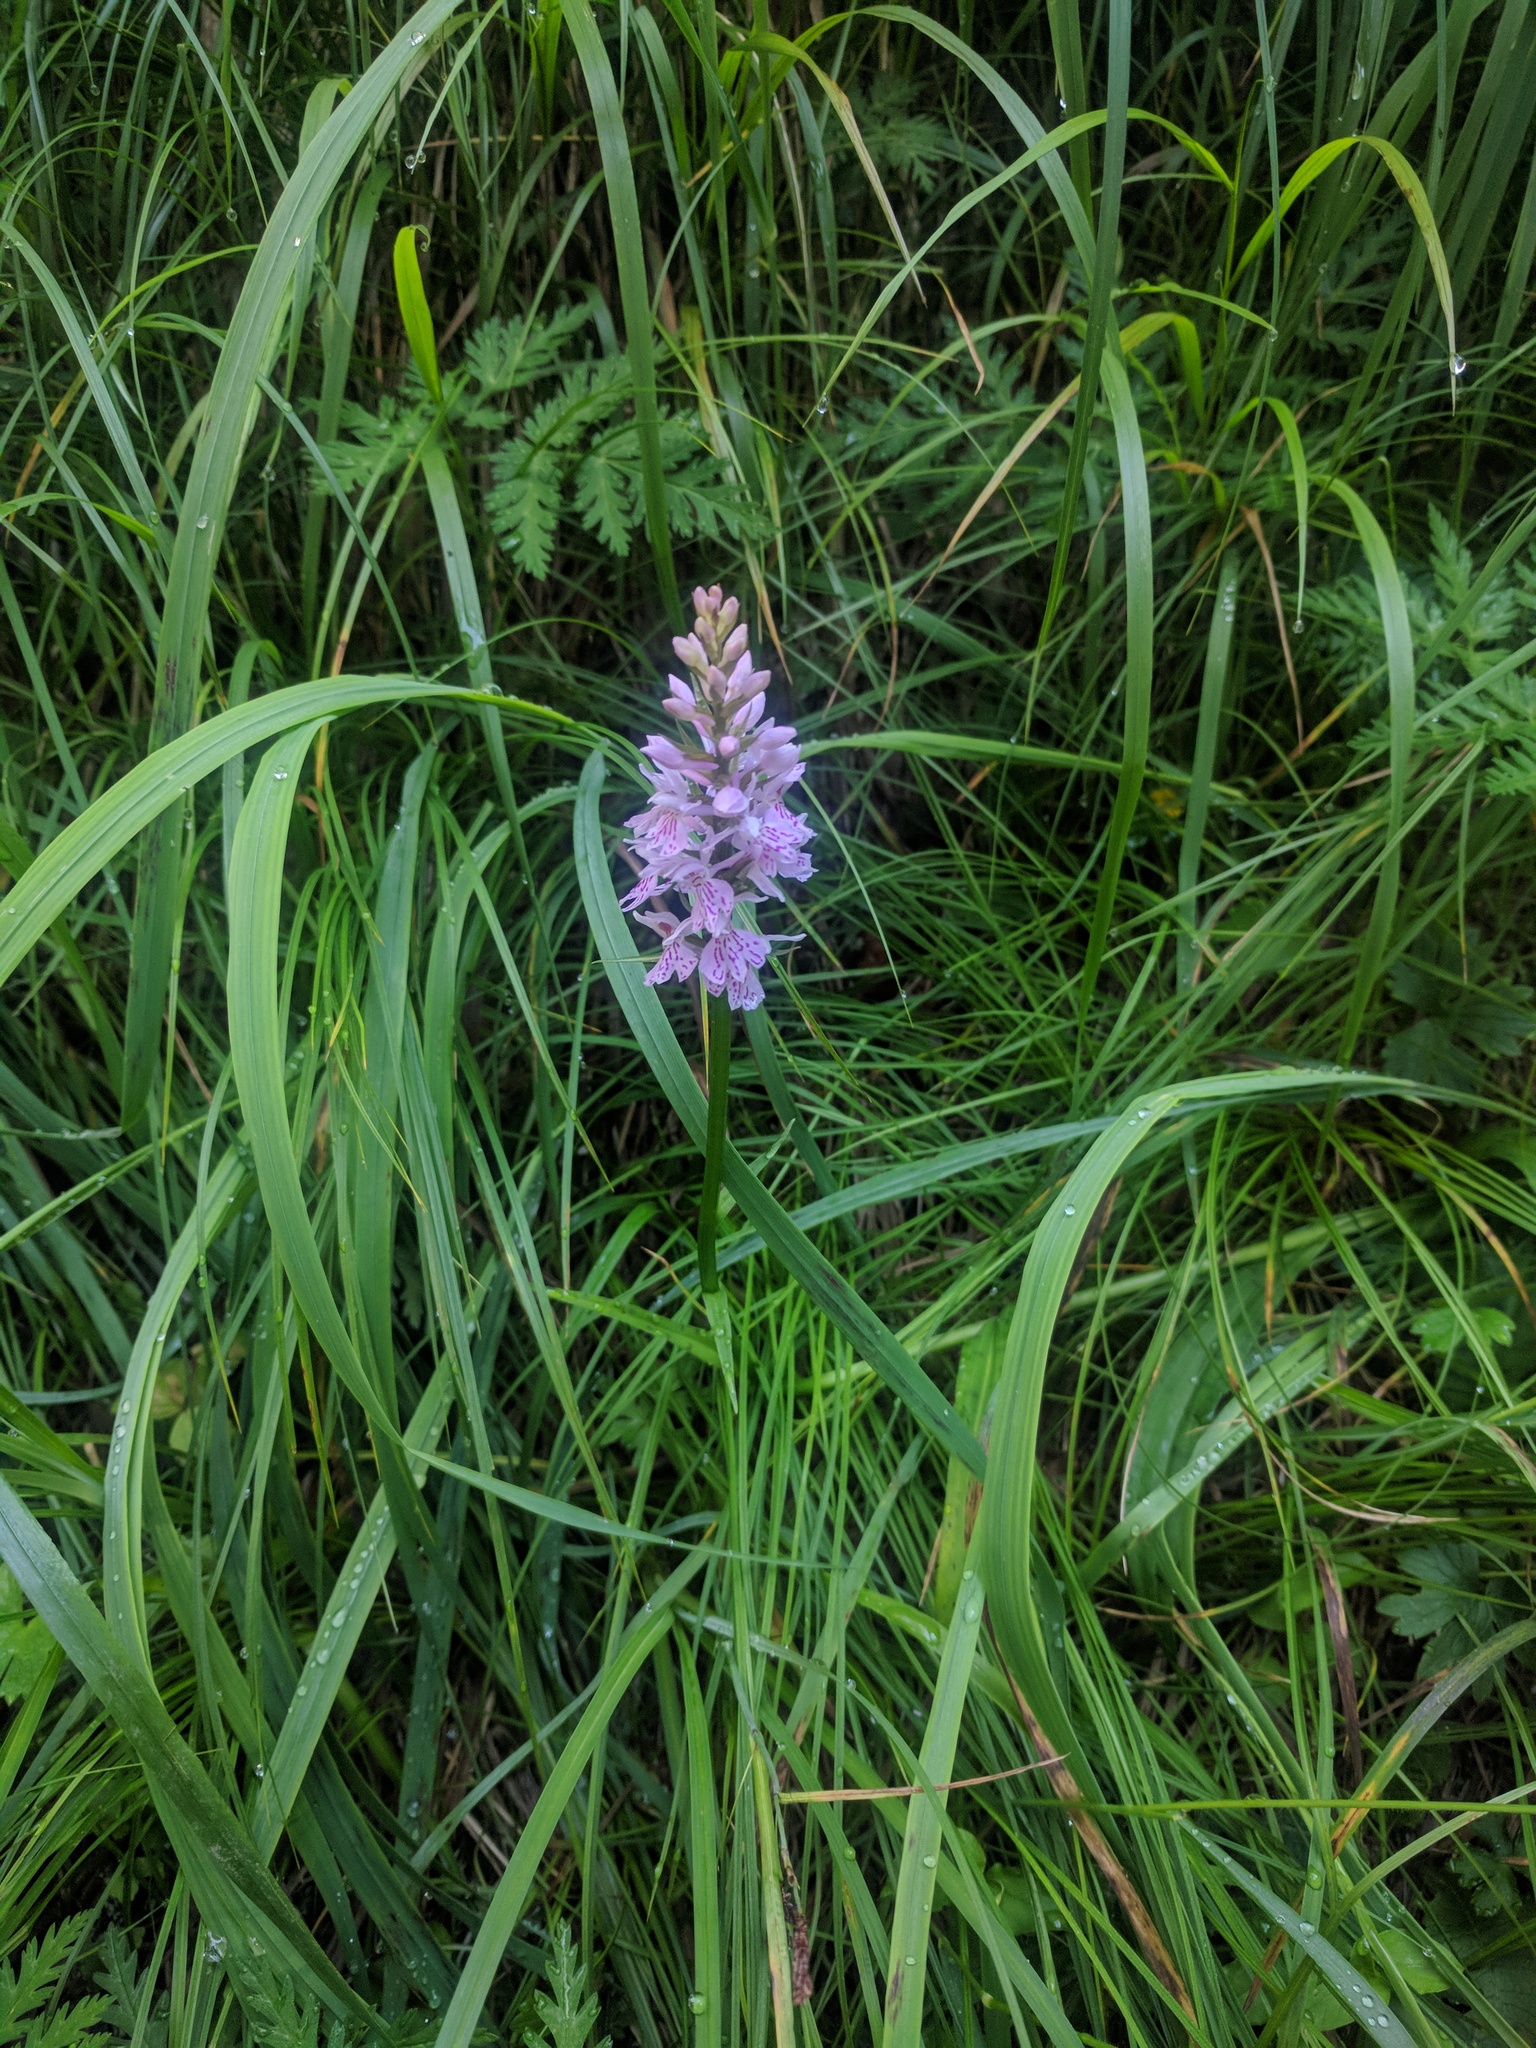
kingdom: Plantae
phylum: Tracheophyta
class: Liliopsida
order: Asparagales
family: Orchidaceae
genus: Dactylorhiza
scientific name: Dactylorhiza maculata
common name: Heath spotted-orchid
